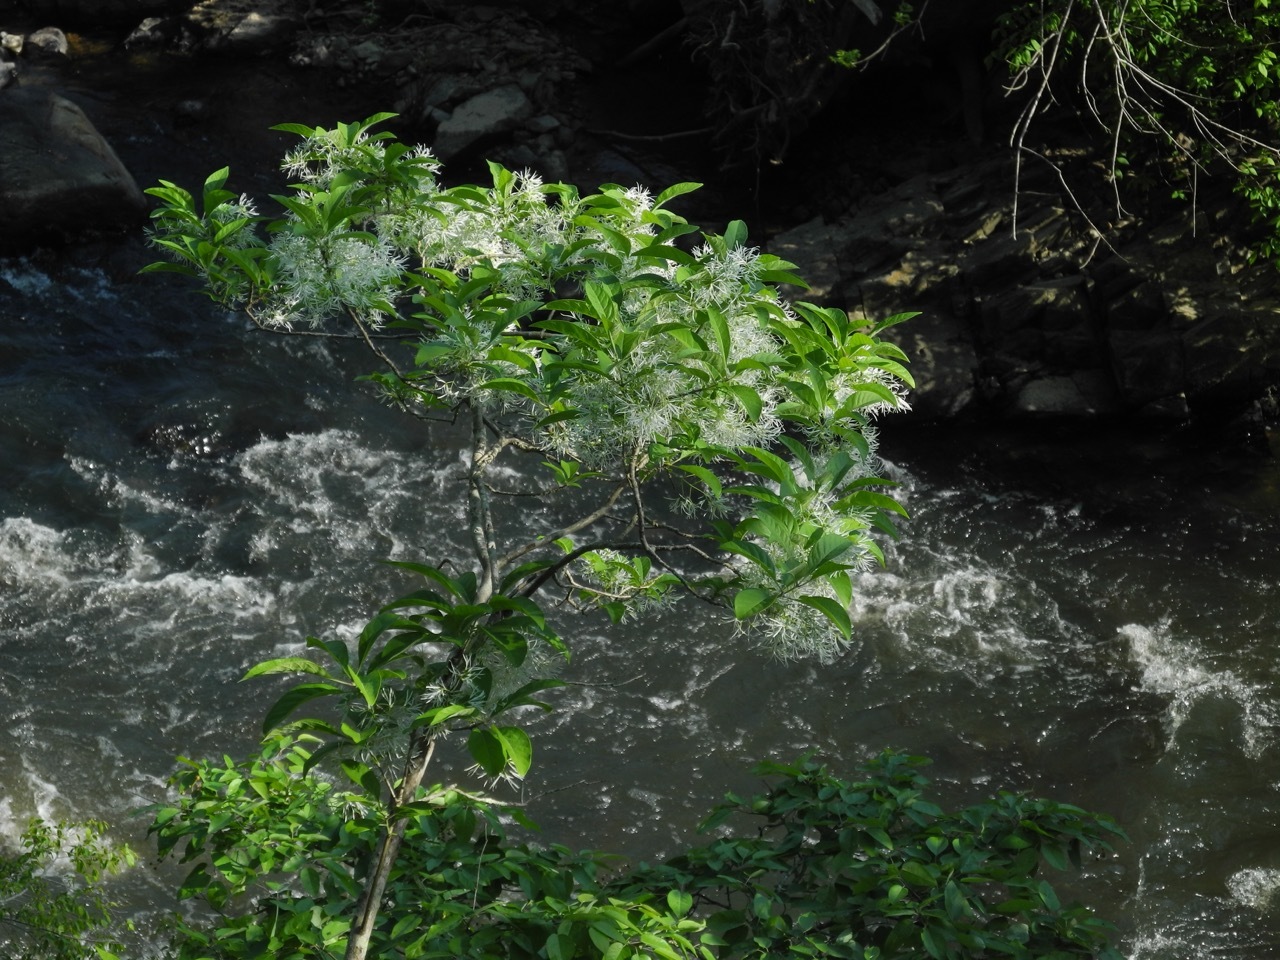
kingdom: Plantae
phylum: Tracheophyta
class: Magnoliopsida
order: Lamiales
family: Oleaceae
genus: Chionanthus
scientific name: Chionanthus virginicus
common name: American fringetree
